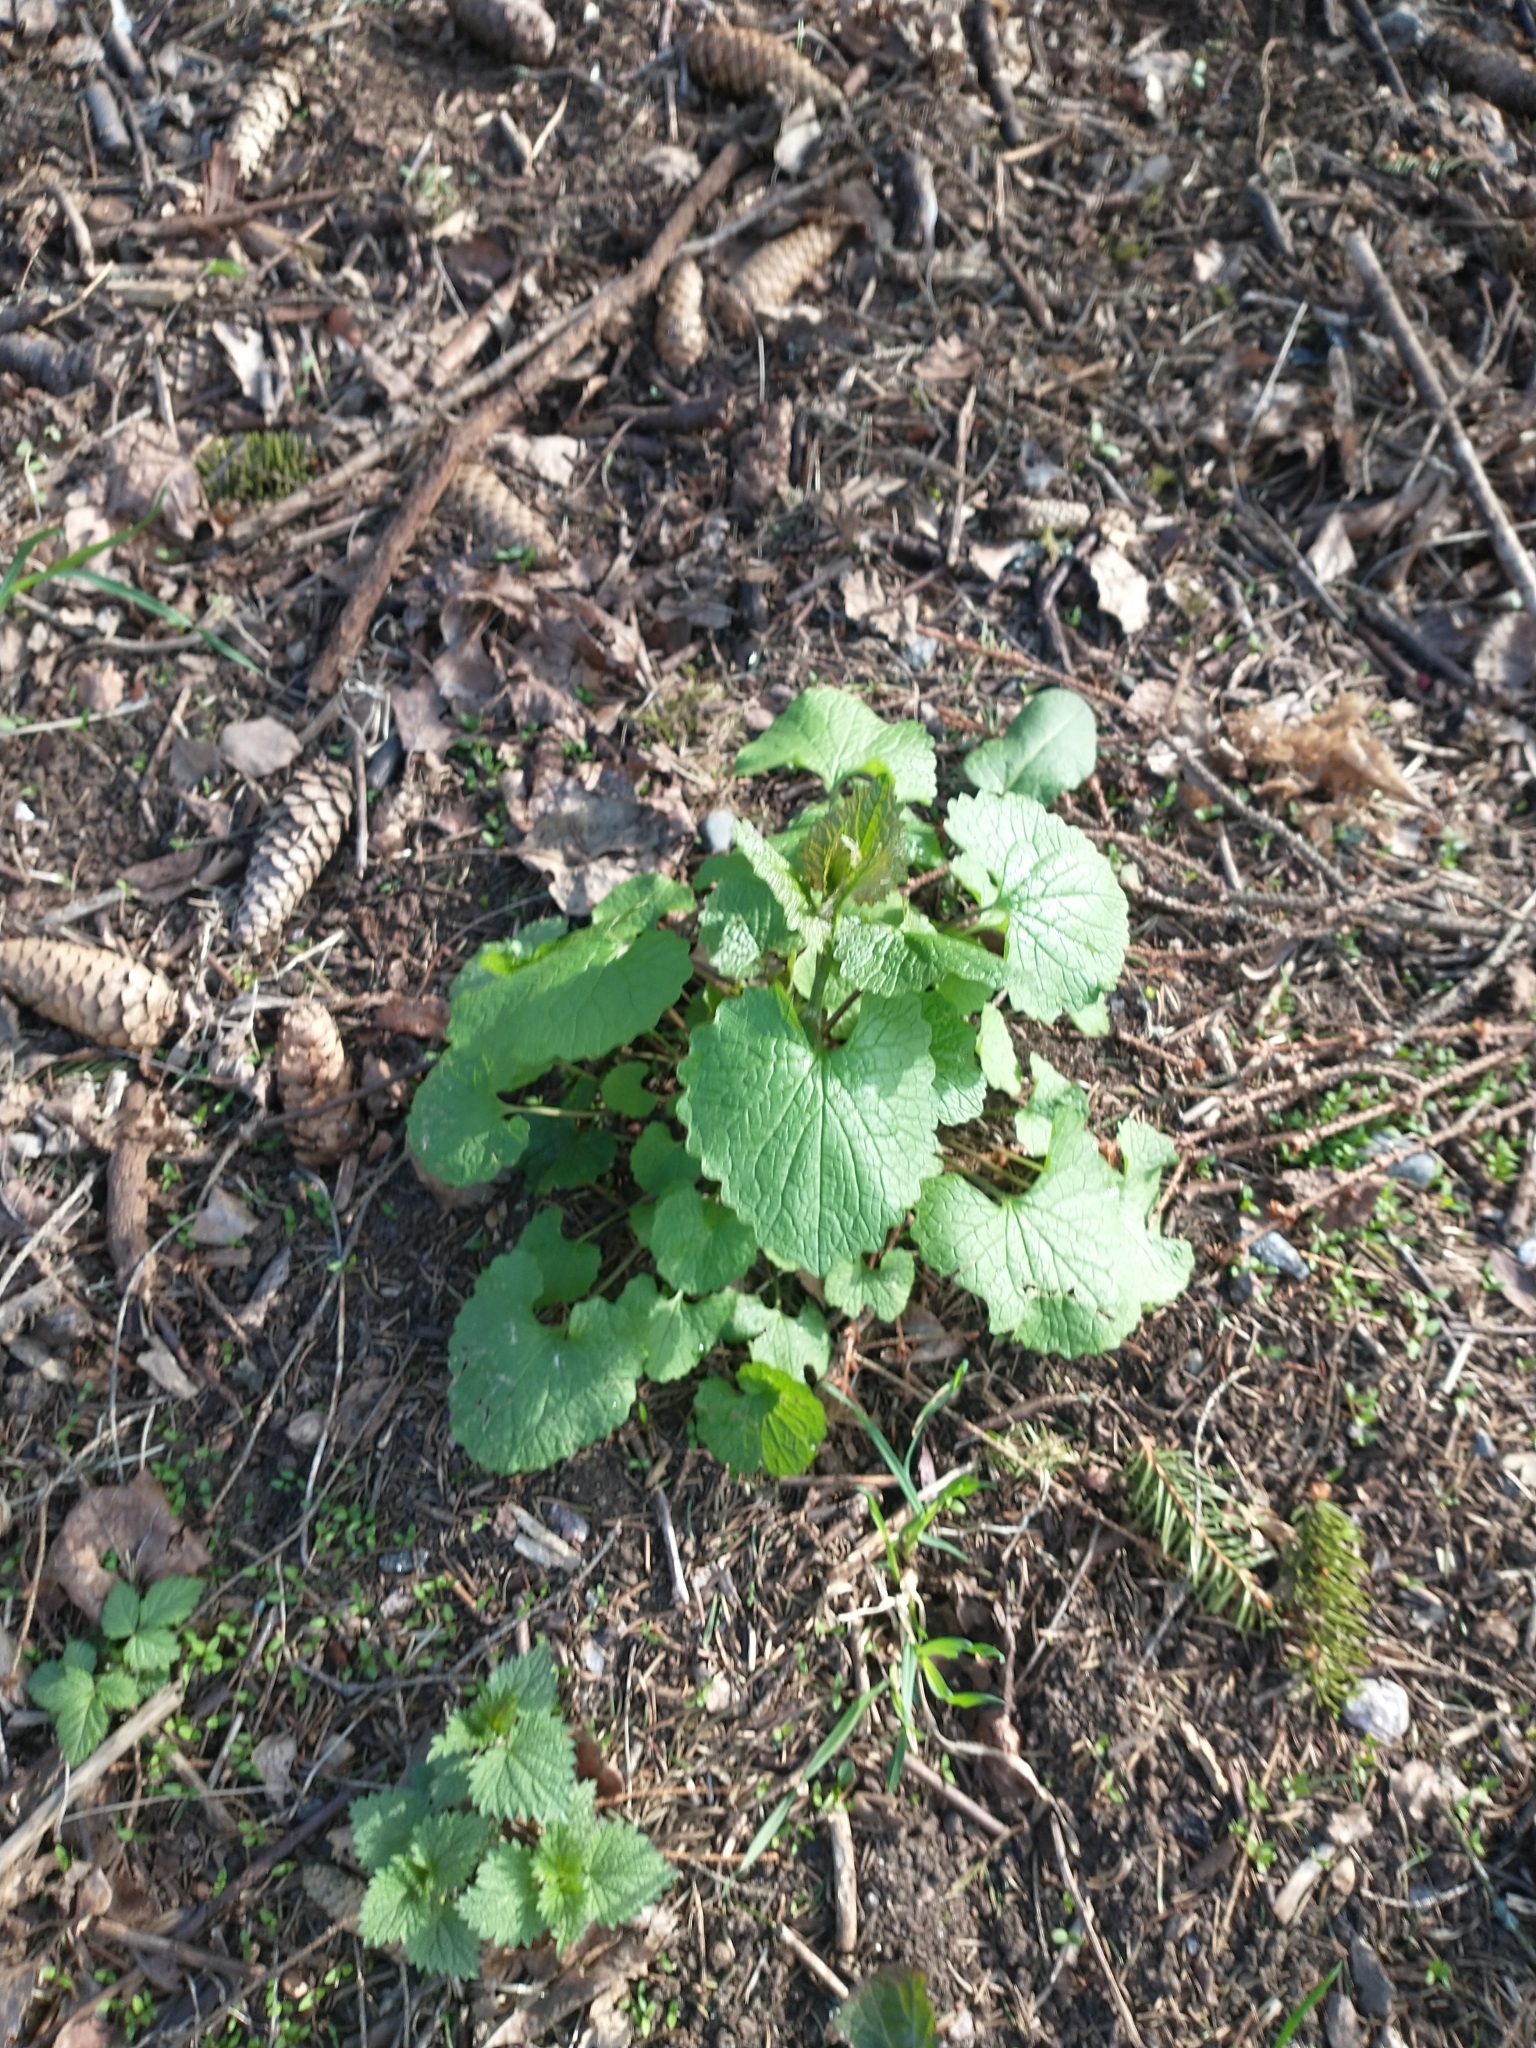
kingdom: Plantae
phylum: Tracheophyta
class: Magnoliopsida
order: Brassicales
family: Brassicaceae
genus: Alliaria
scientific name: Alliaria petiolata
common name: Garlic mustard
